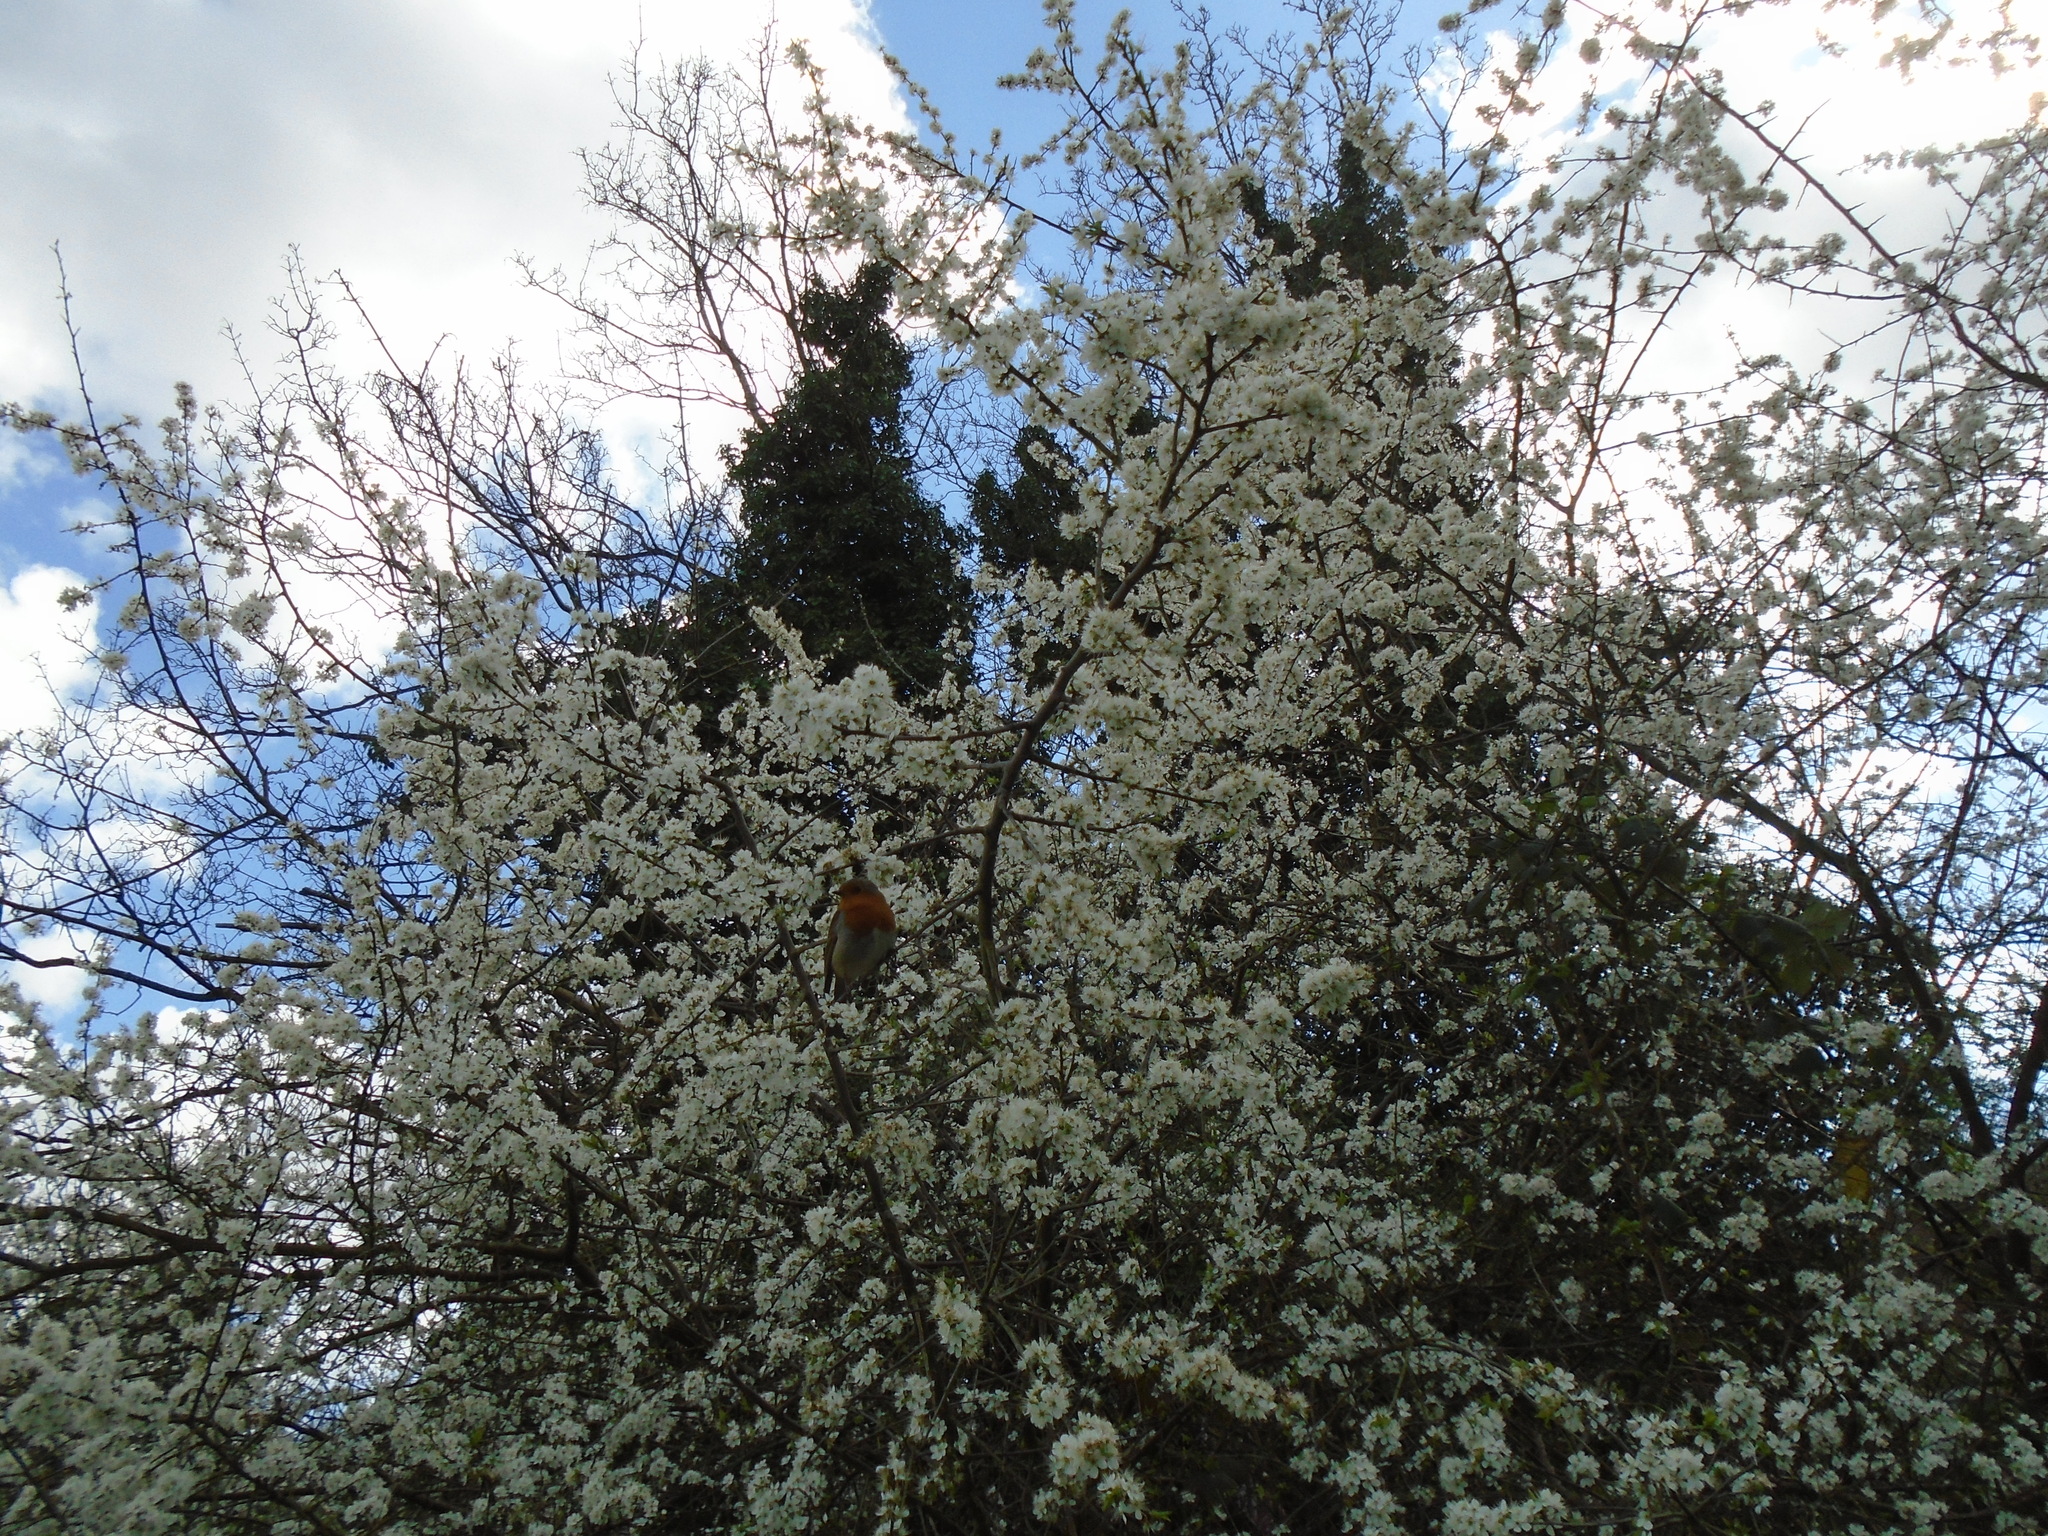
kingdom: Animalia
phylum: Chordata
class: Aves
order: Passeriformes
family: Muscicapidae
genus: Erithacus
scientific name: Erithacus rubecula
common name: European robin
